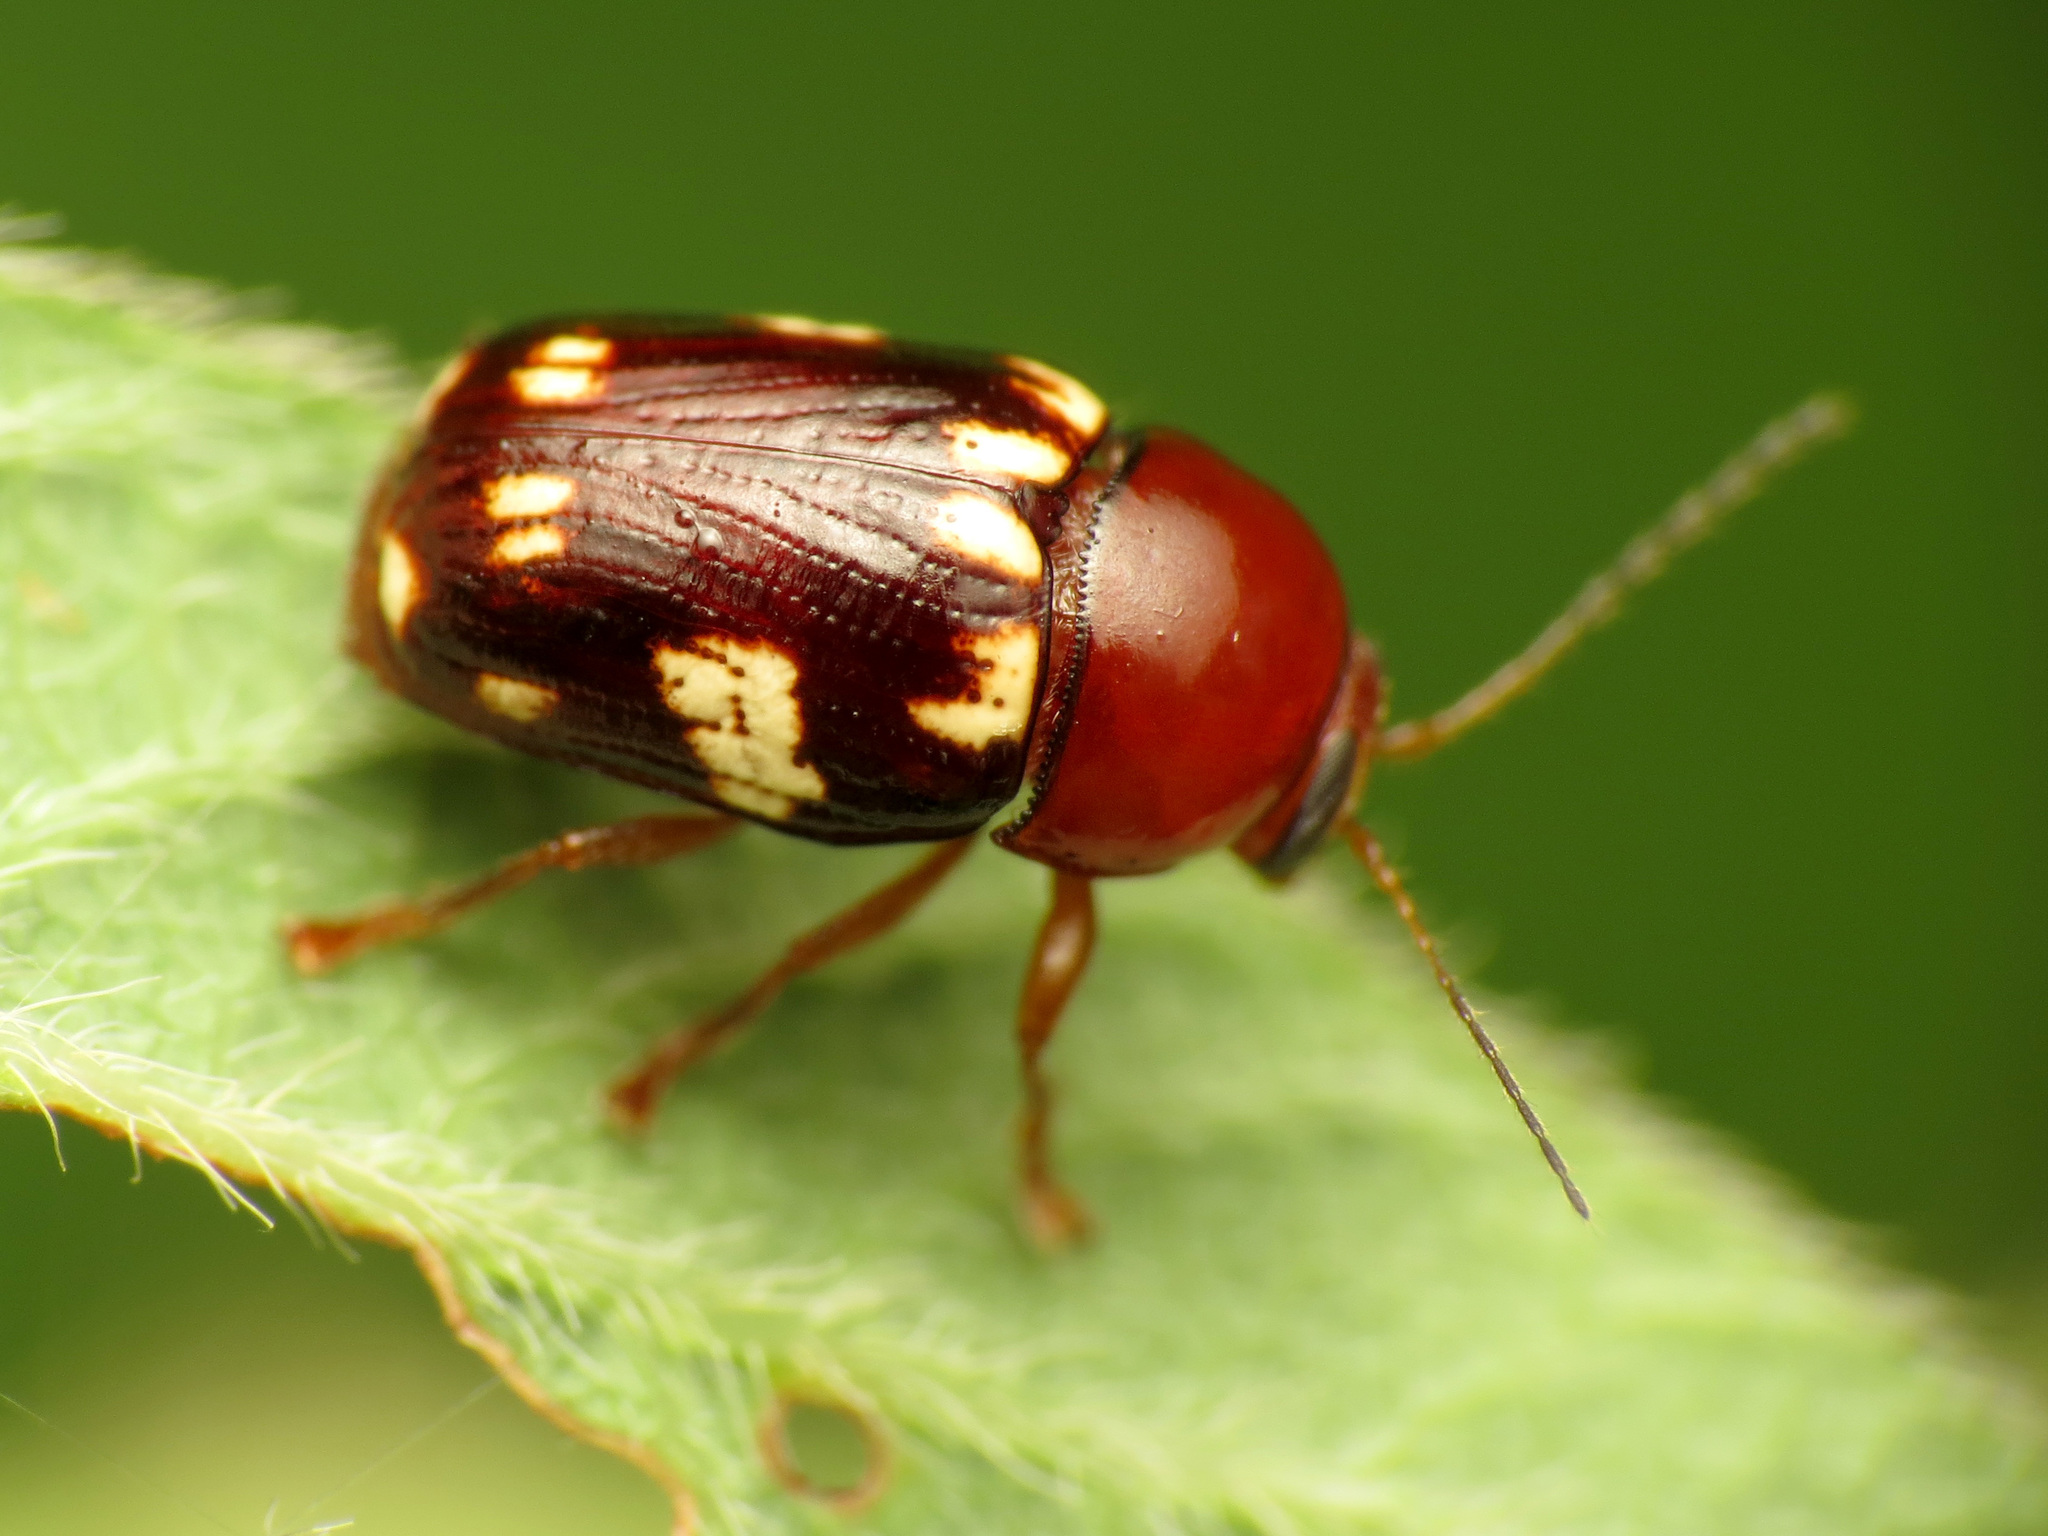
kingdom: Animalia
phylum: Arthropoda
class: Insecta
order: Coleoptera
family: Chrysomelidae
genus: Cryptocephalus
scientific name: Cryptocephalus badius
